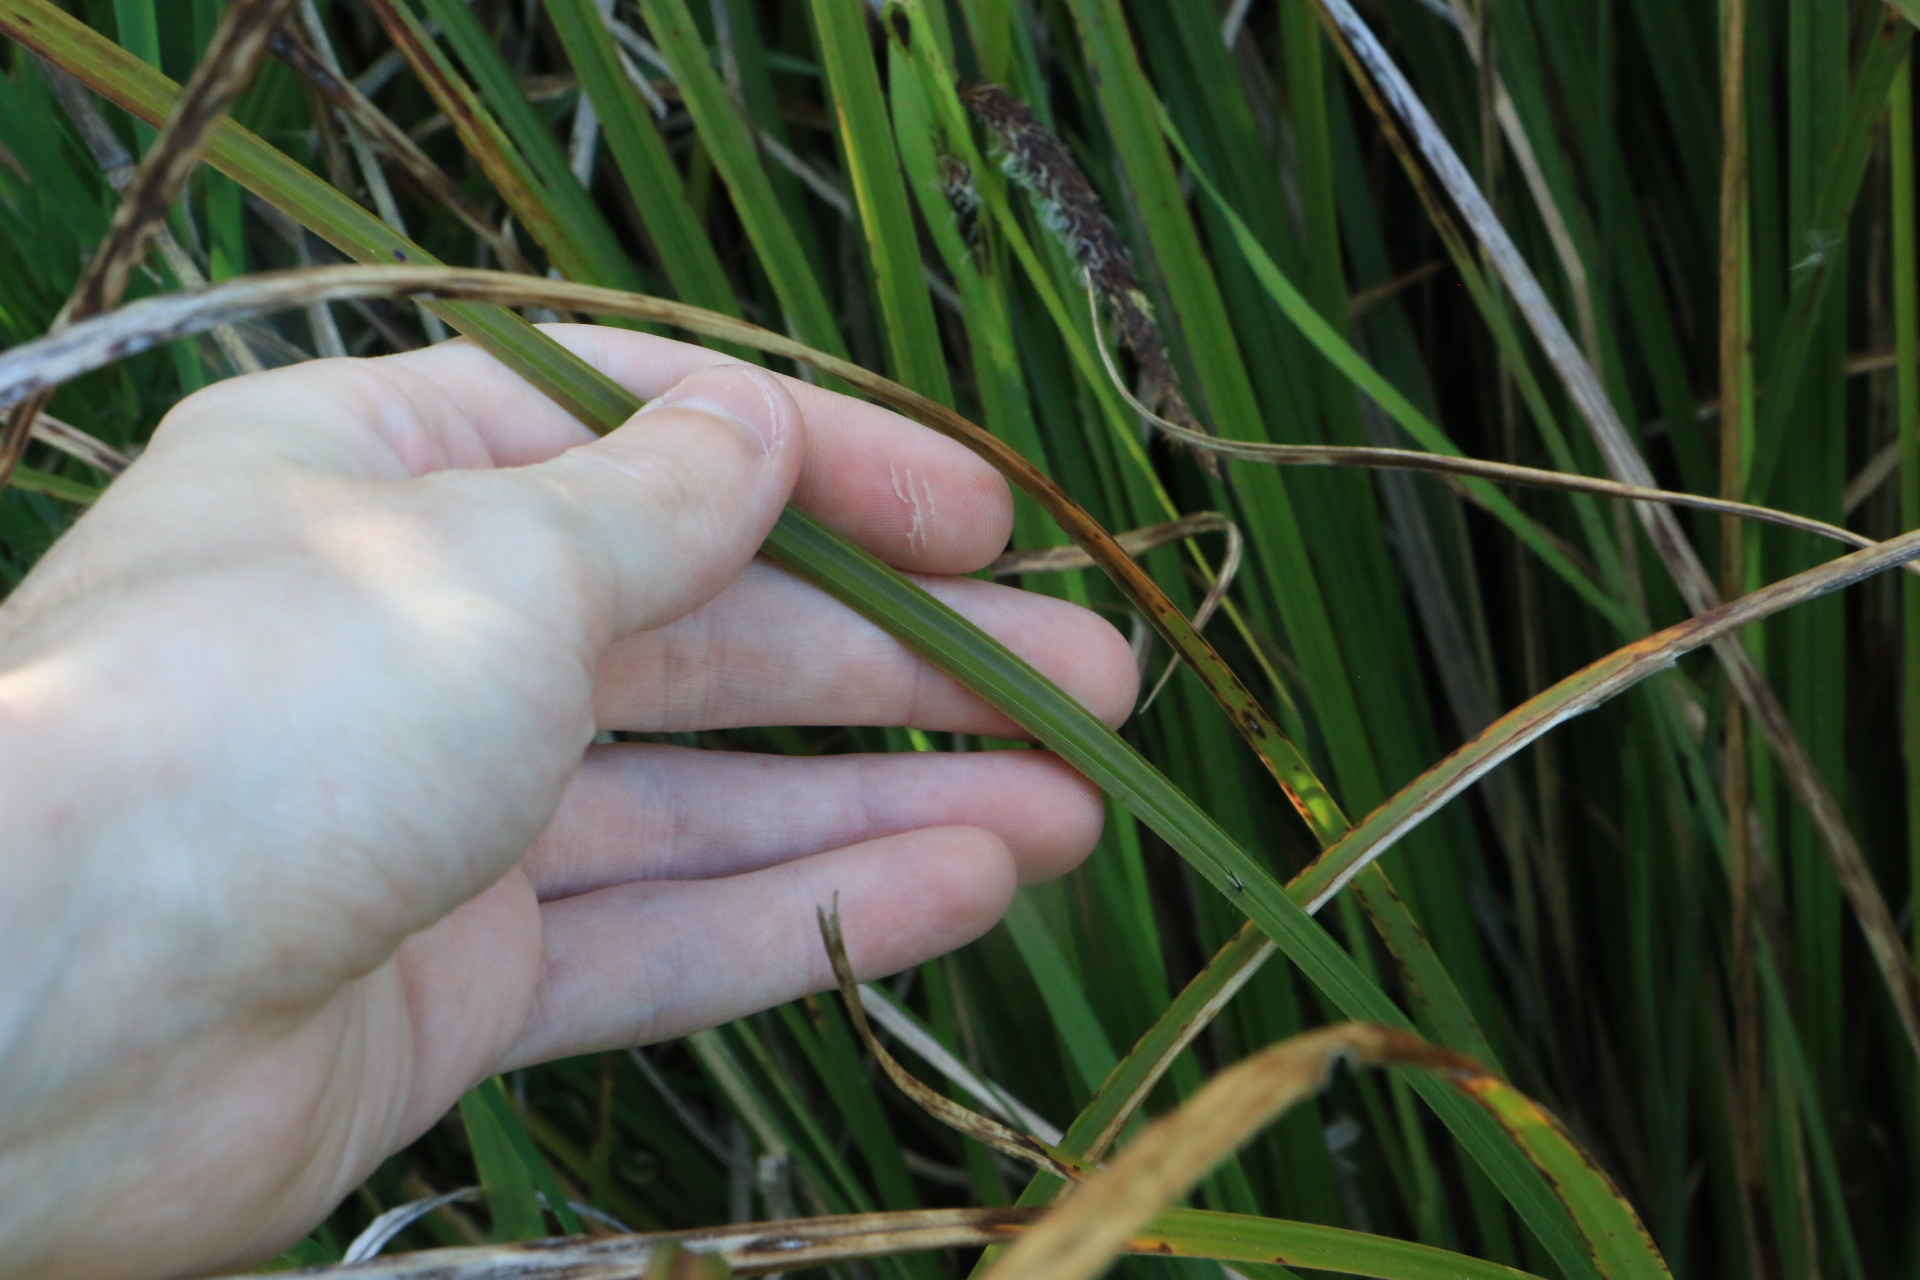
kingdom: Plantae
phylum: Tracheophyta
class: Liliopsida
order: Poales
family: Cyperaceae
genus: Carex
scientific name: Carex obnupta
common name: Slough sedge
